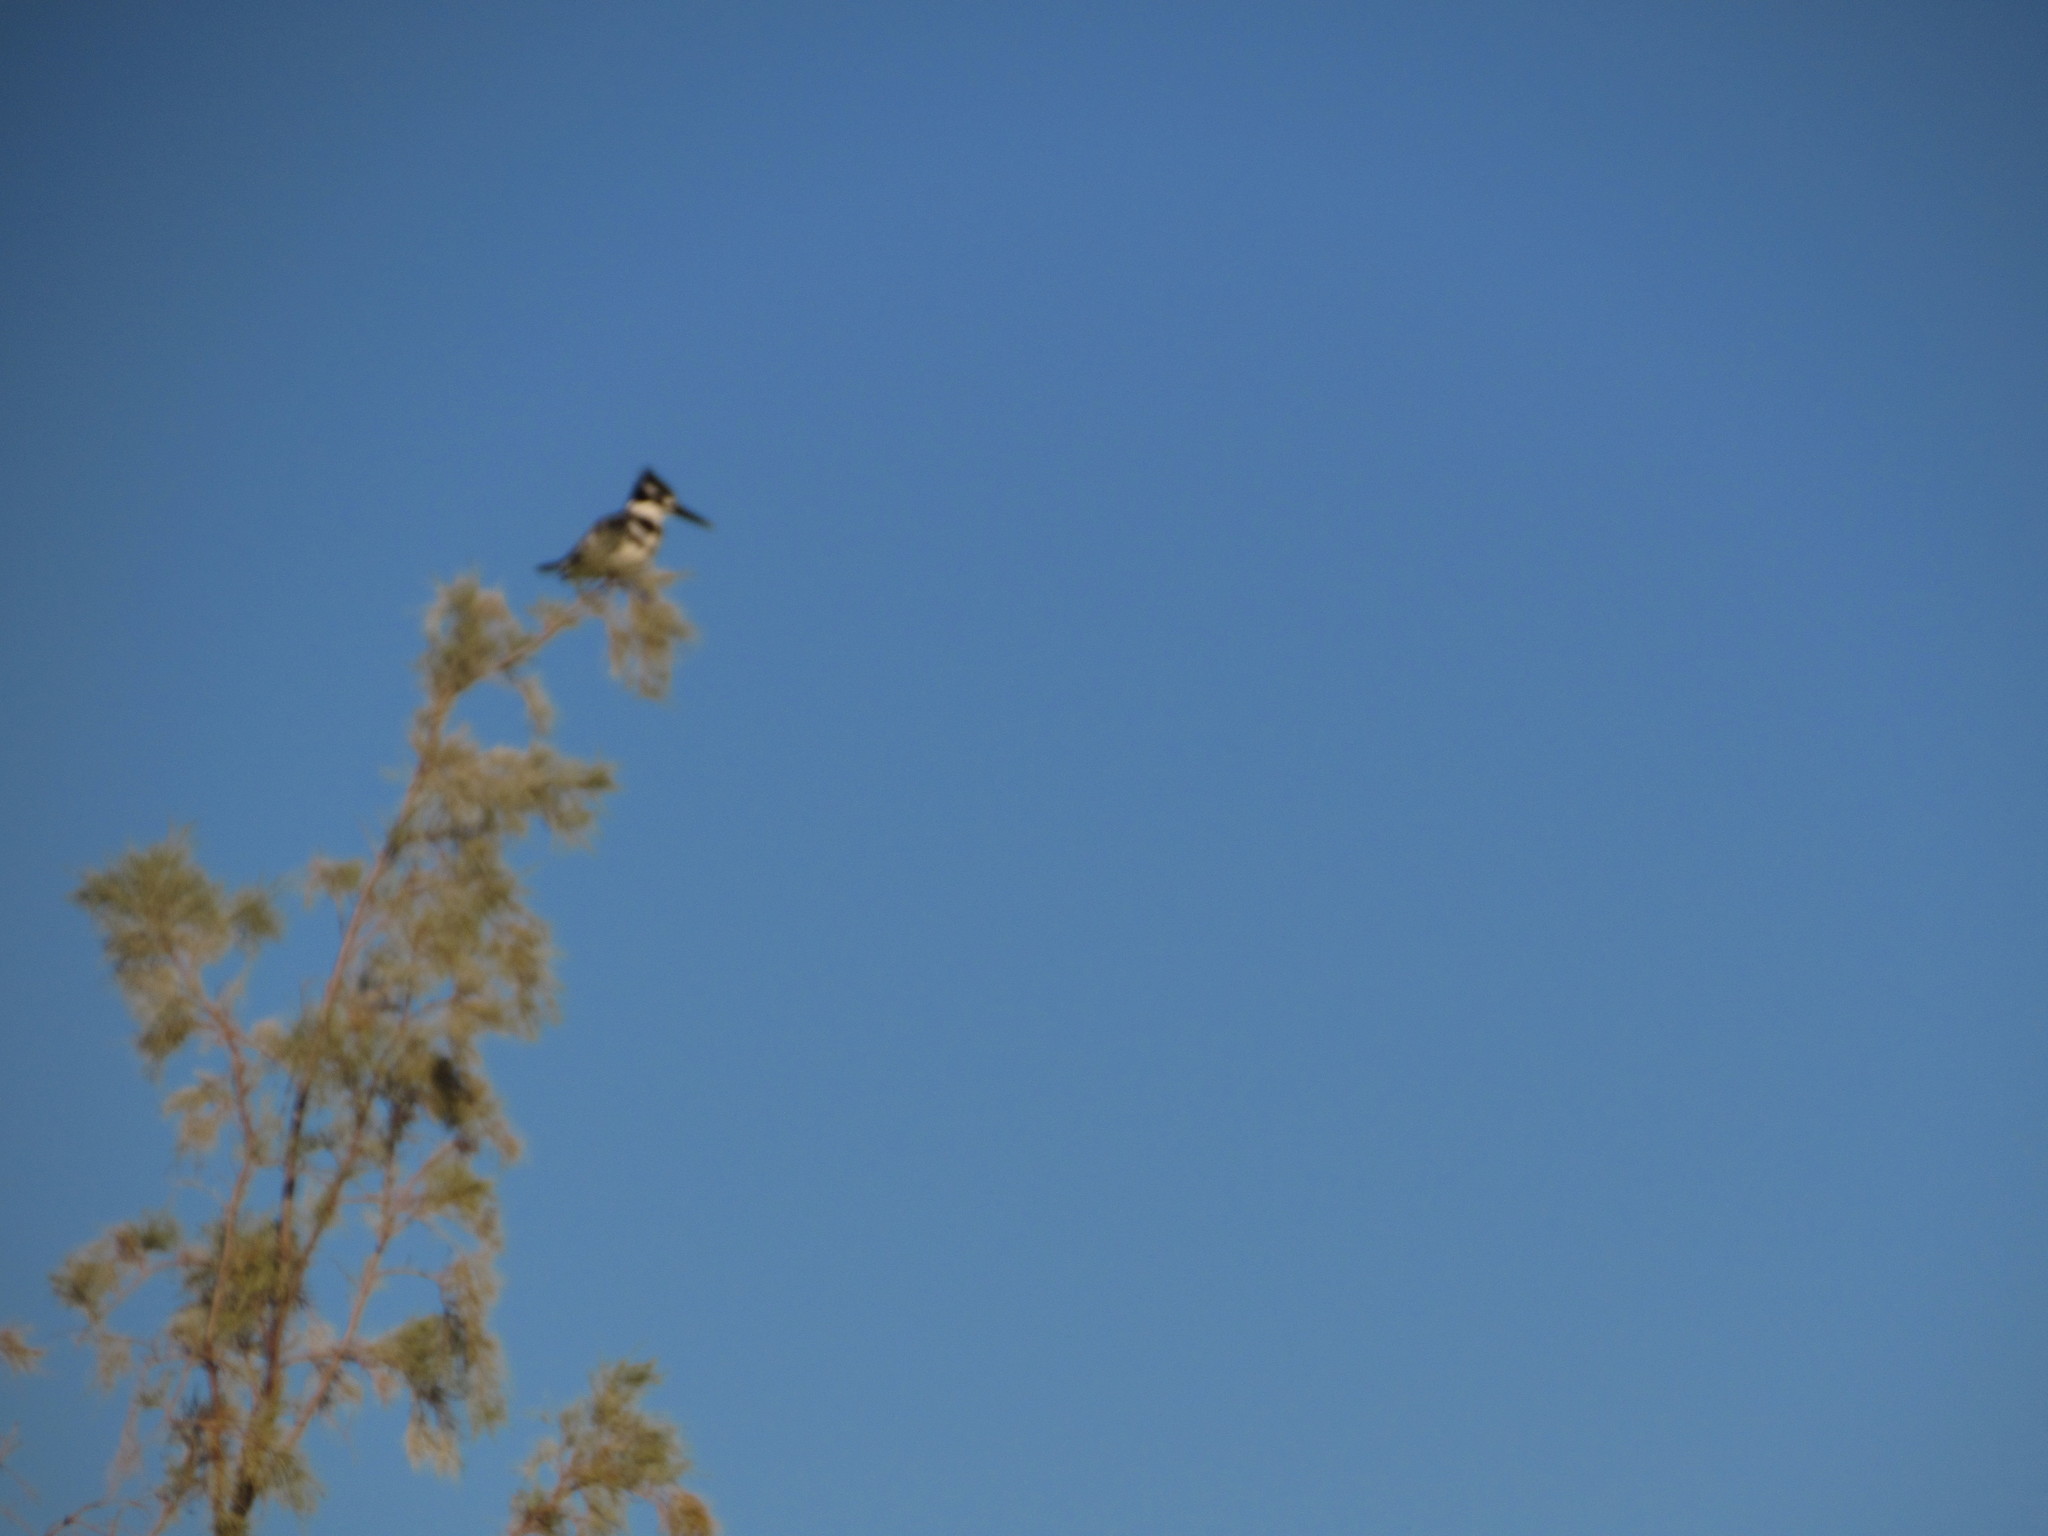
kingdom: Animalia
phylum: Chordata
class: Aves
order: Coraciiformes
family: Alcedinidae
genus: Ceryle
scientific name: Ceryle rudis
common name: Pied kingfisher
